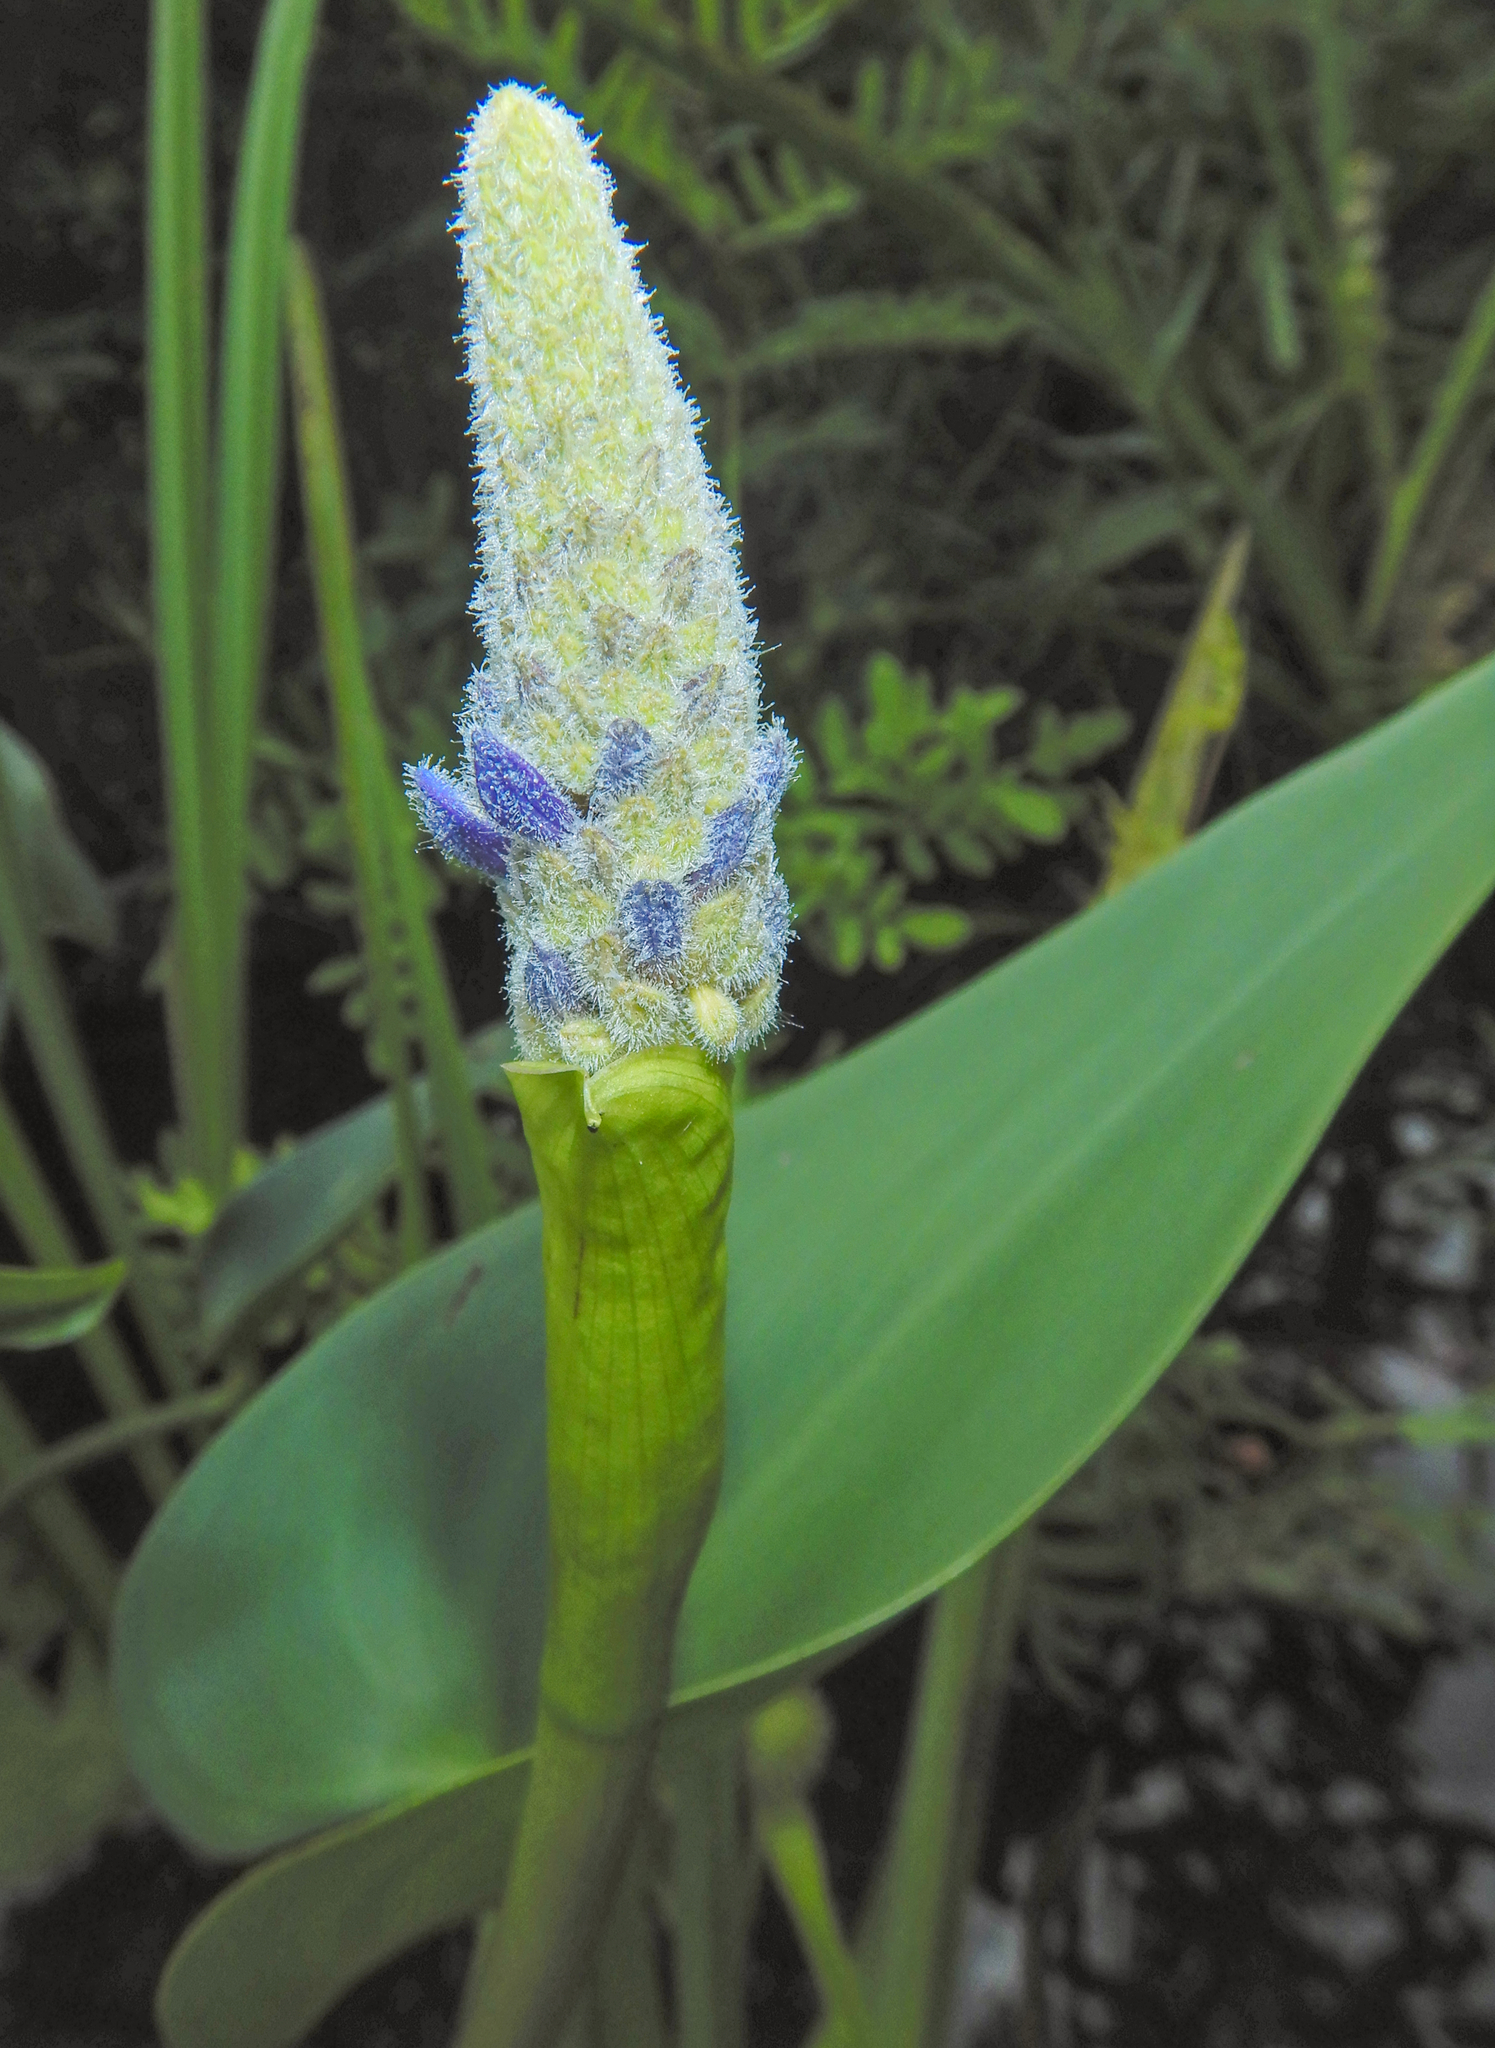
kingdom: Plantae
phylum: Tracheophyta
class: Liliopsida
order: Commelinales
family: Pontederiaceae
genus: Pontederia
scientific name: Pontederia cordata
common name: Pickerelweed
